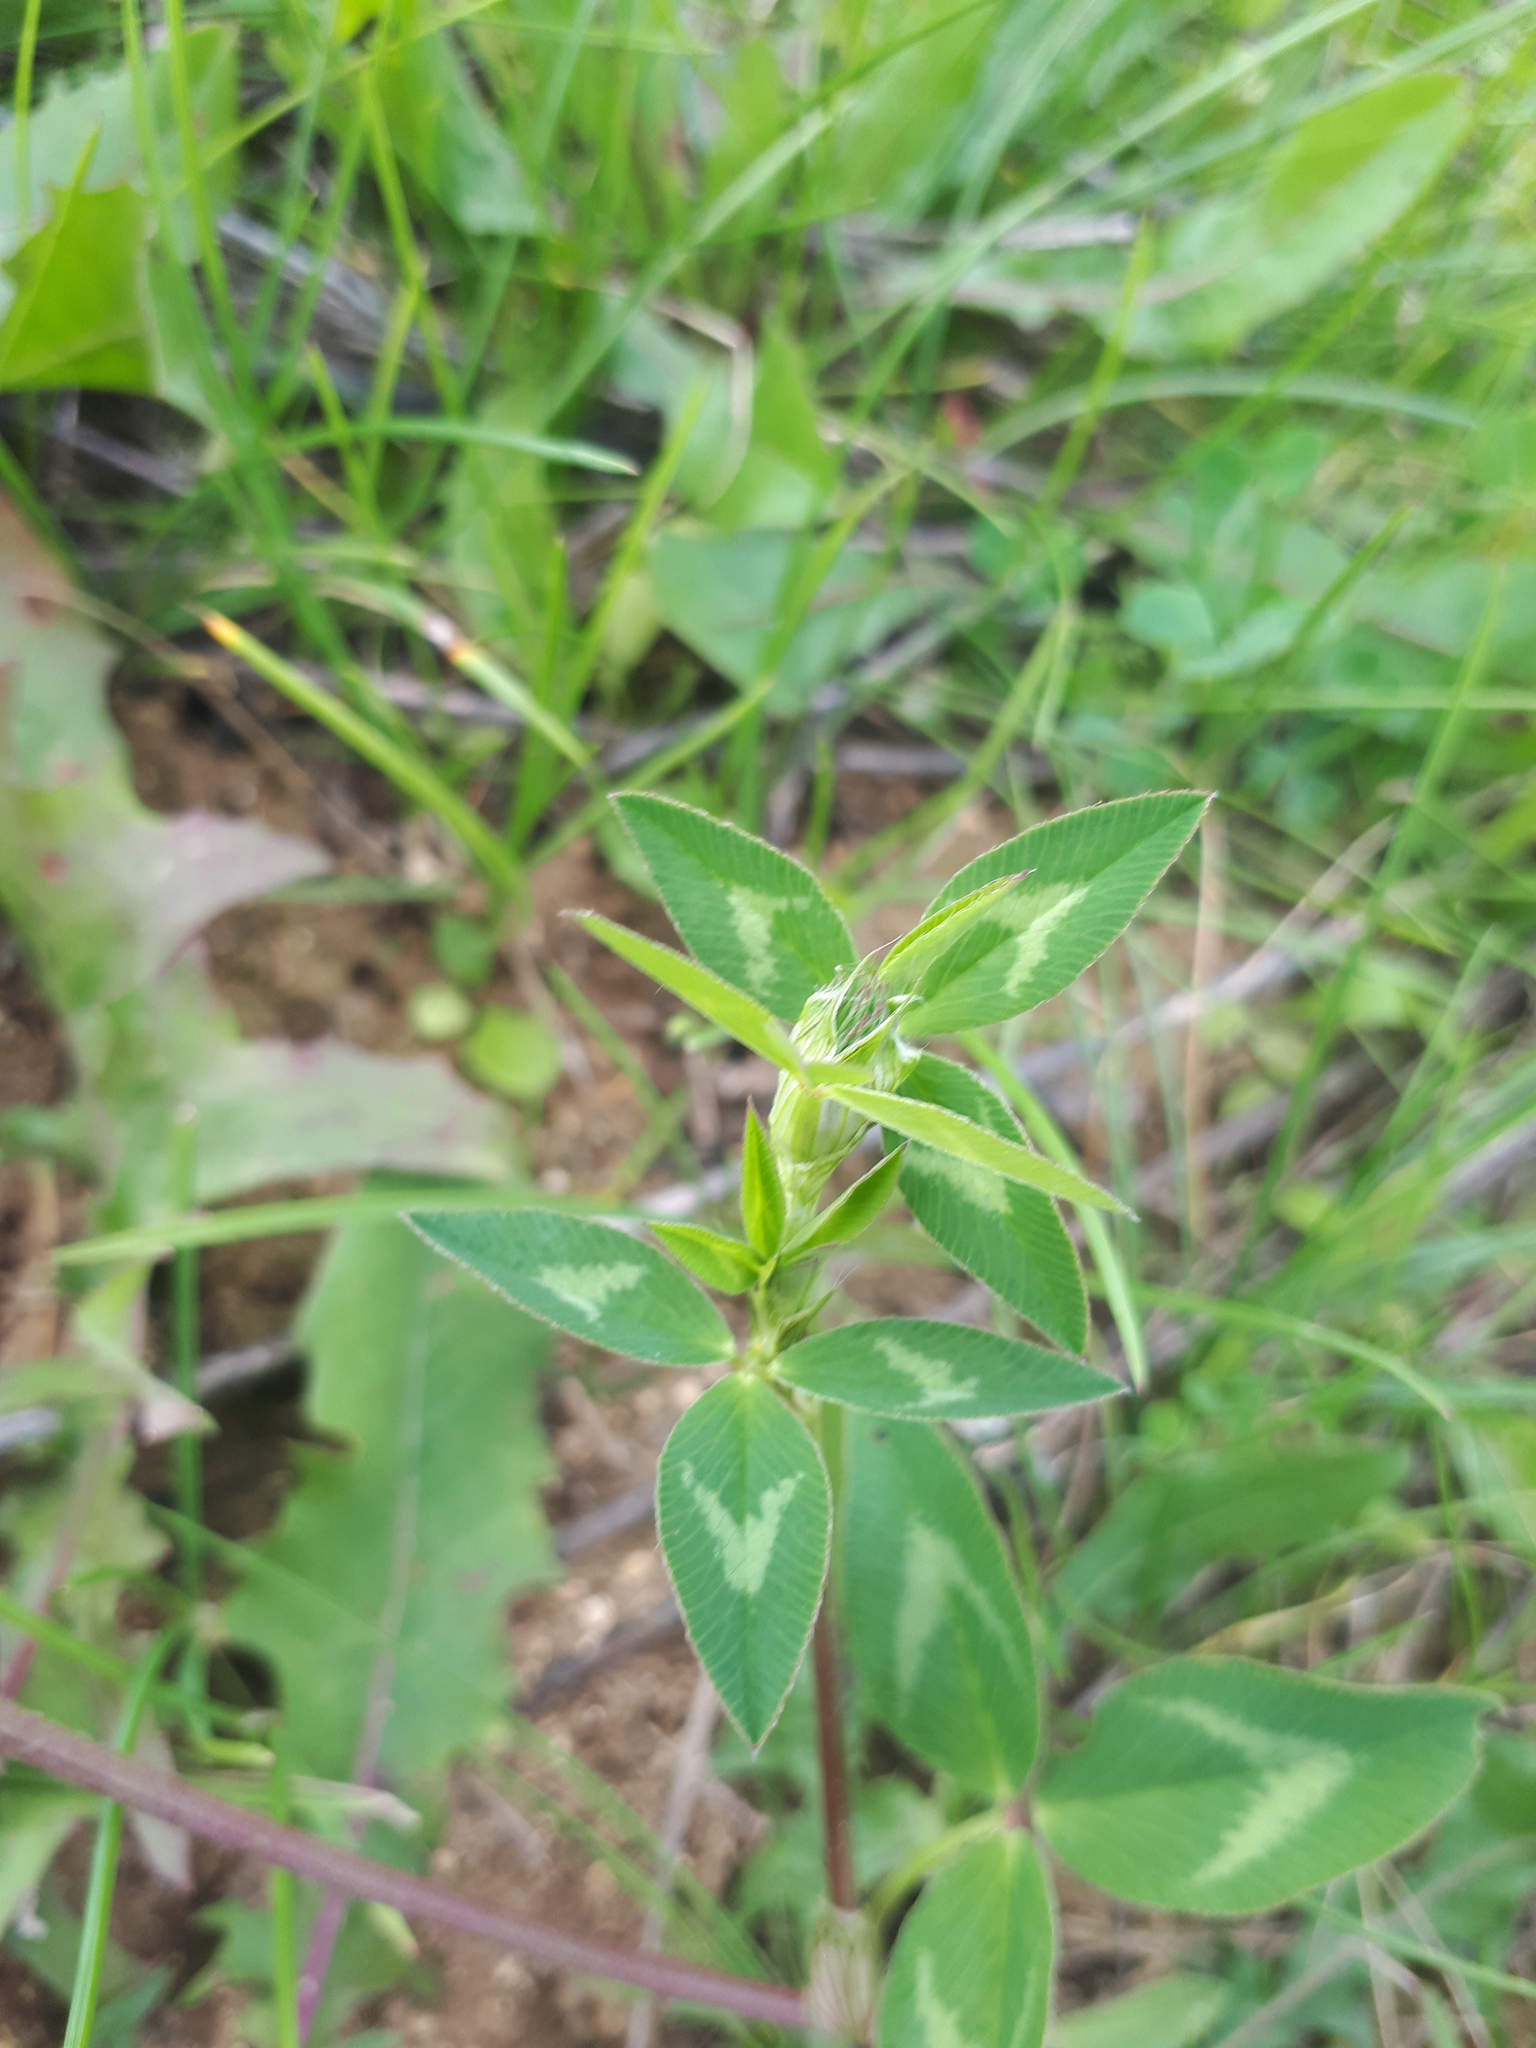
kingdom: Plantae
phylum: Tracheophyta
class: Magnoliopsida
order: Fabales
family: Fabaceae
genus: Trifolium
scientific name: Trifolium pratense
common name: Red clover
